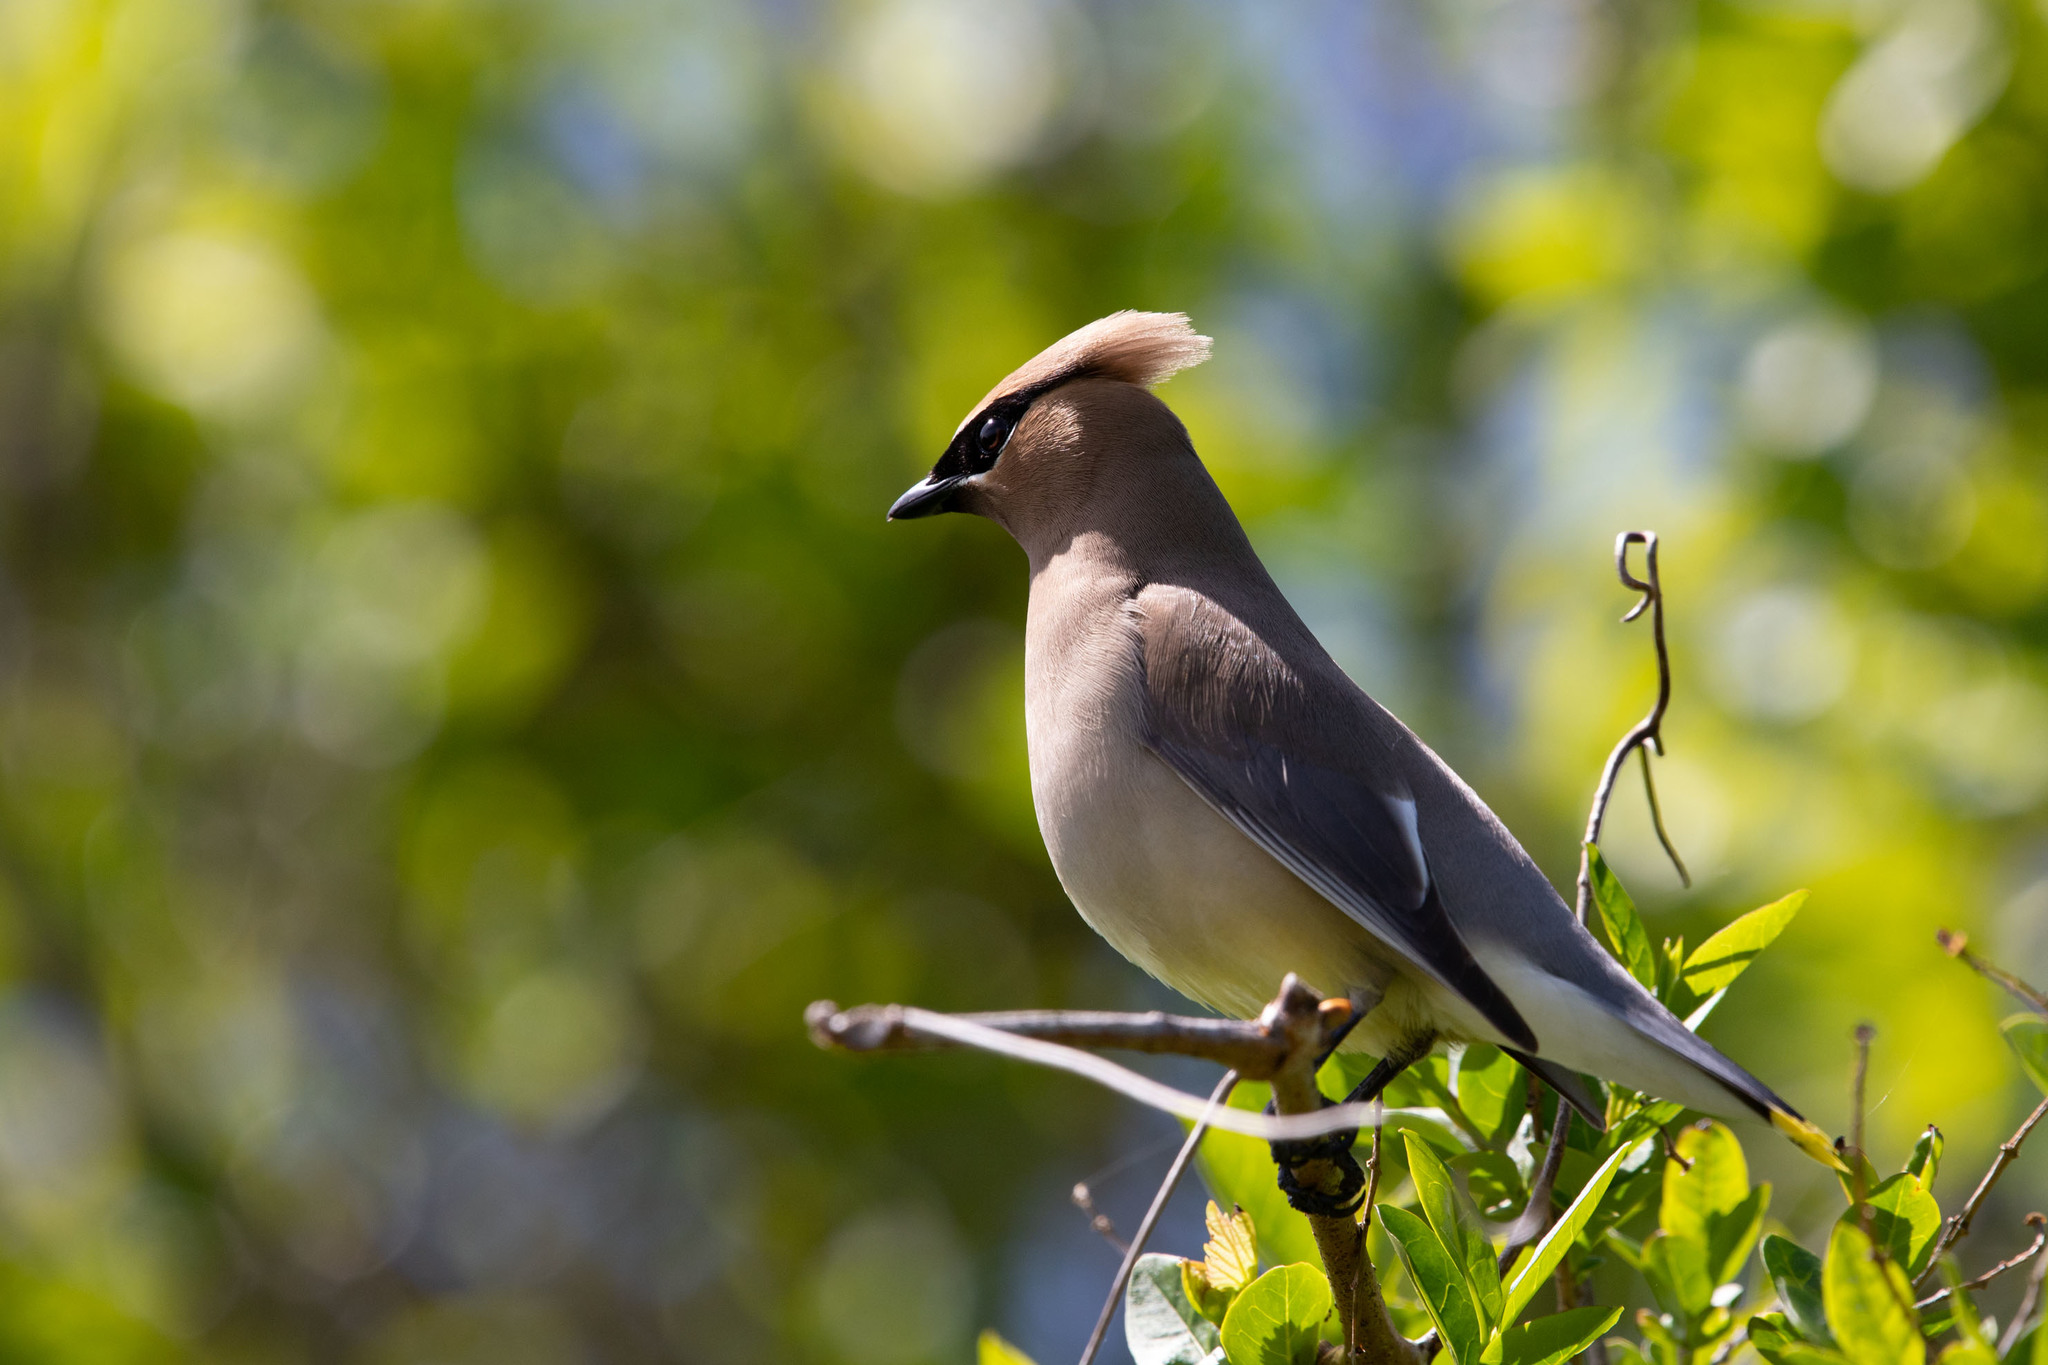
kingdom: Animalia
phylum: Chordata
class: Aves
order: Passeriformes
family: Bombycillidae
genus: Bombycilla
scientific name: Bombycilla cedrorum
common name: Cedar waxwing
